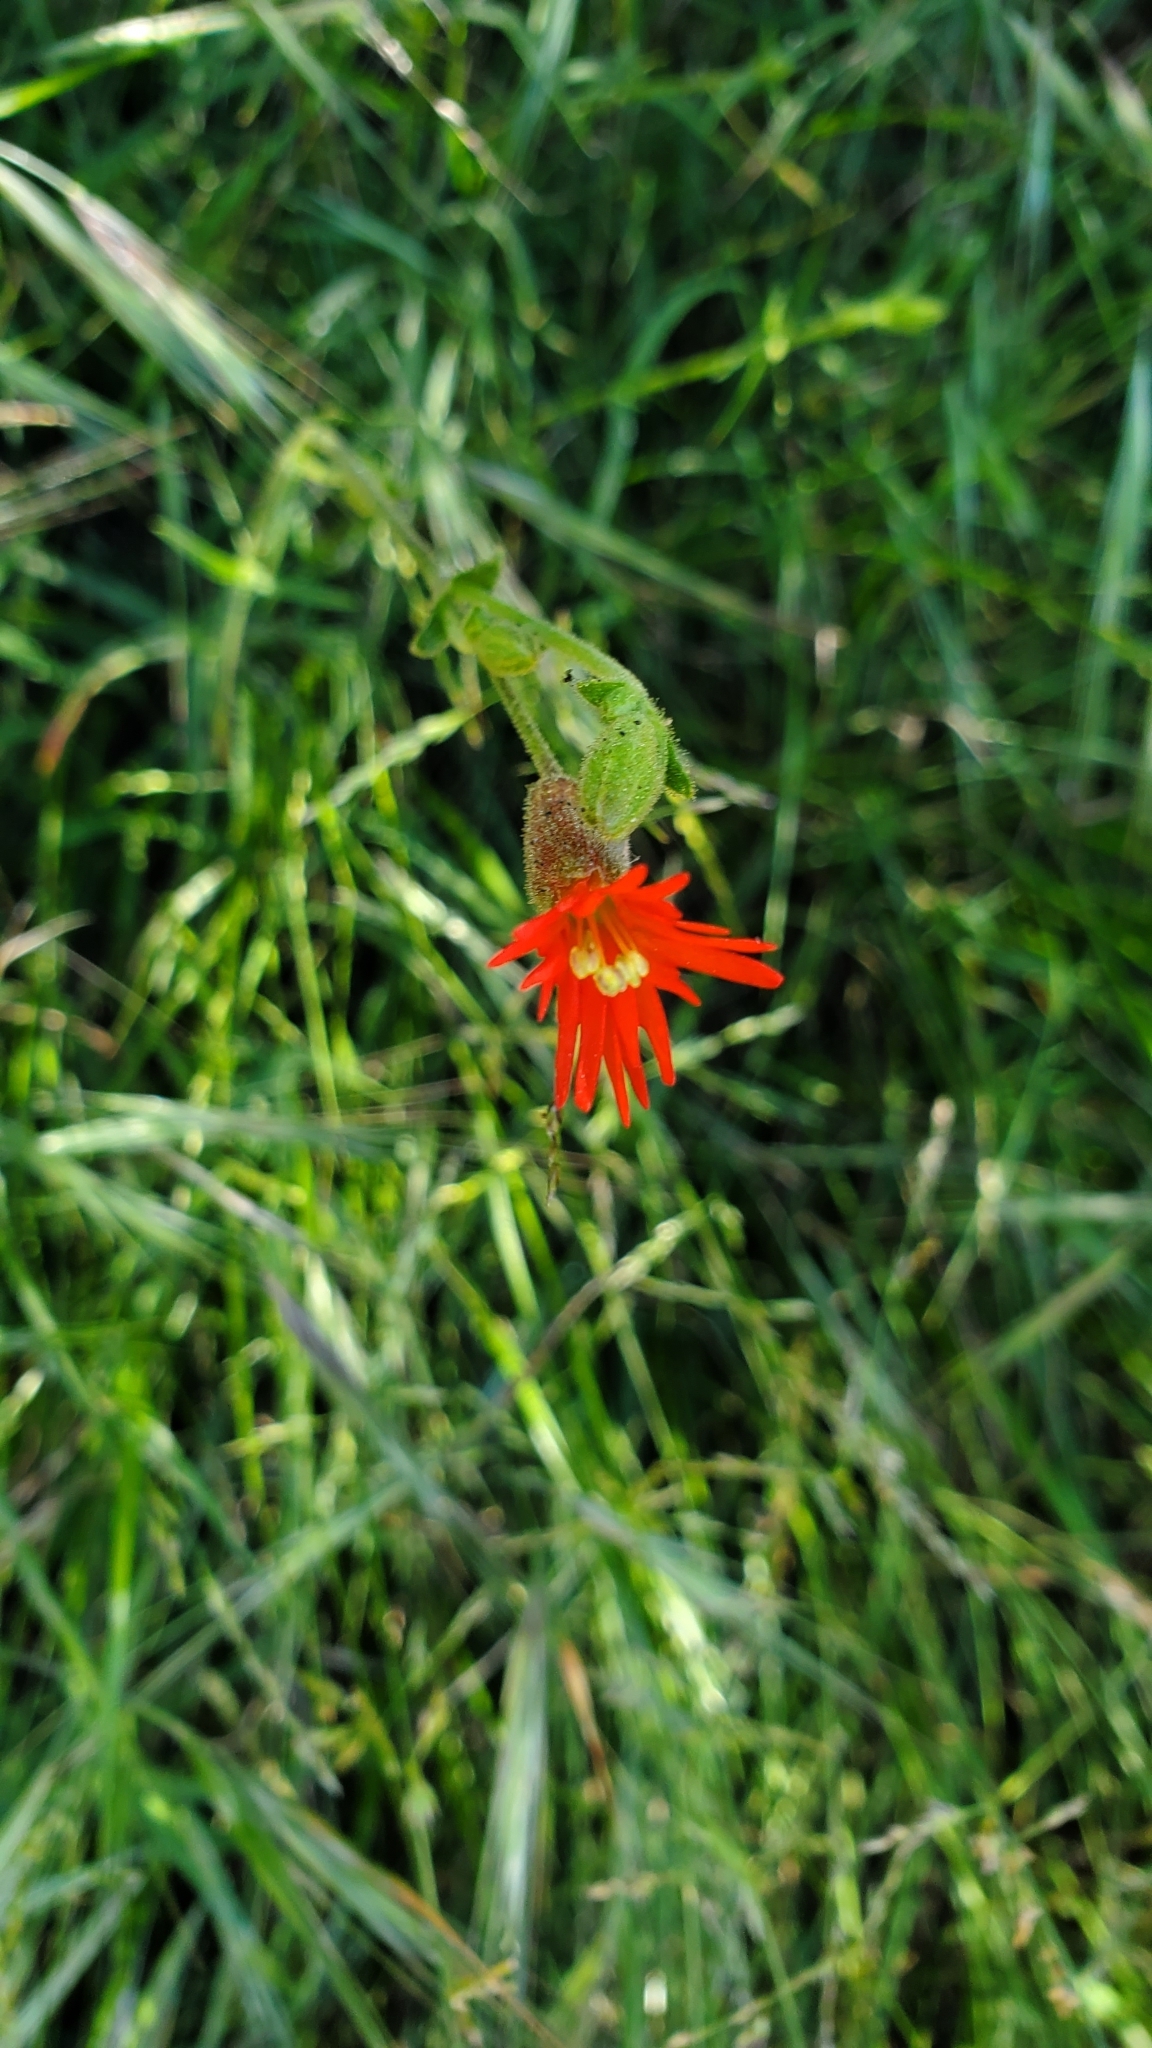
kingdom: Plantae
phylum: Tracheophyta
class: Magnoliopsida
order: Caryophyllales
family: Caryophyllaceae
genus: Silene
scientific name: Silene laciniata
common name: Indian-pink
